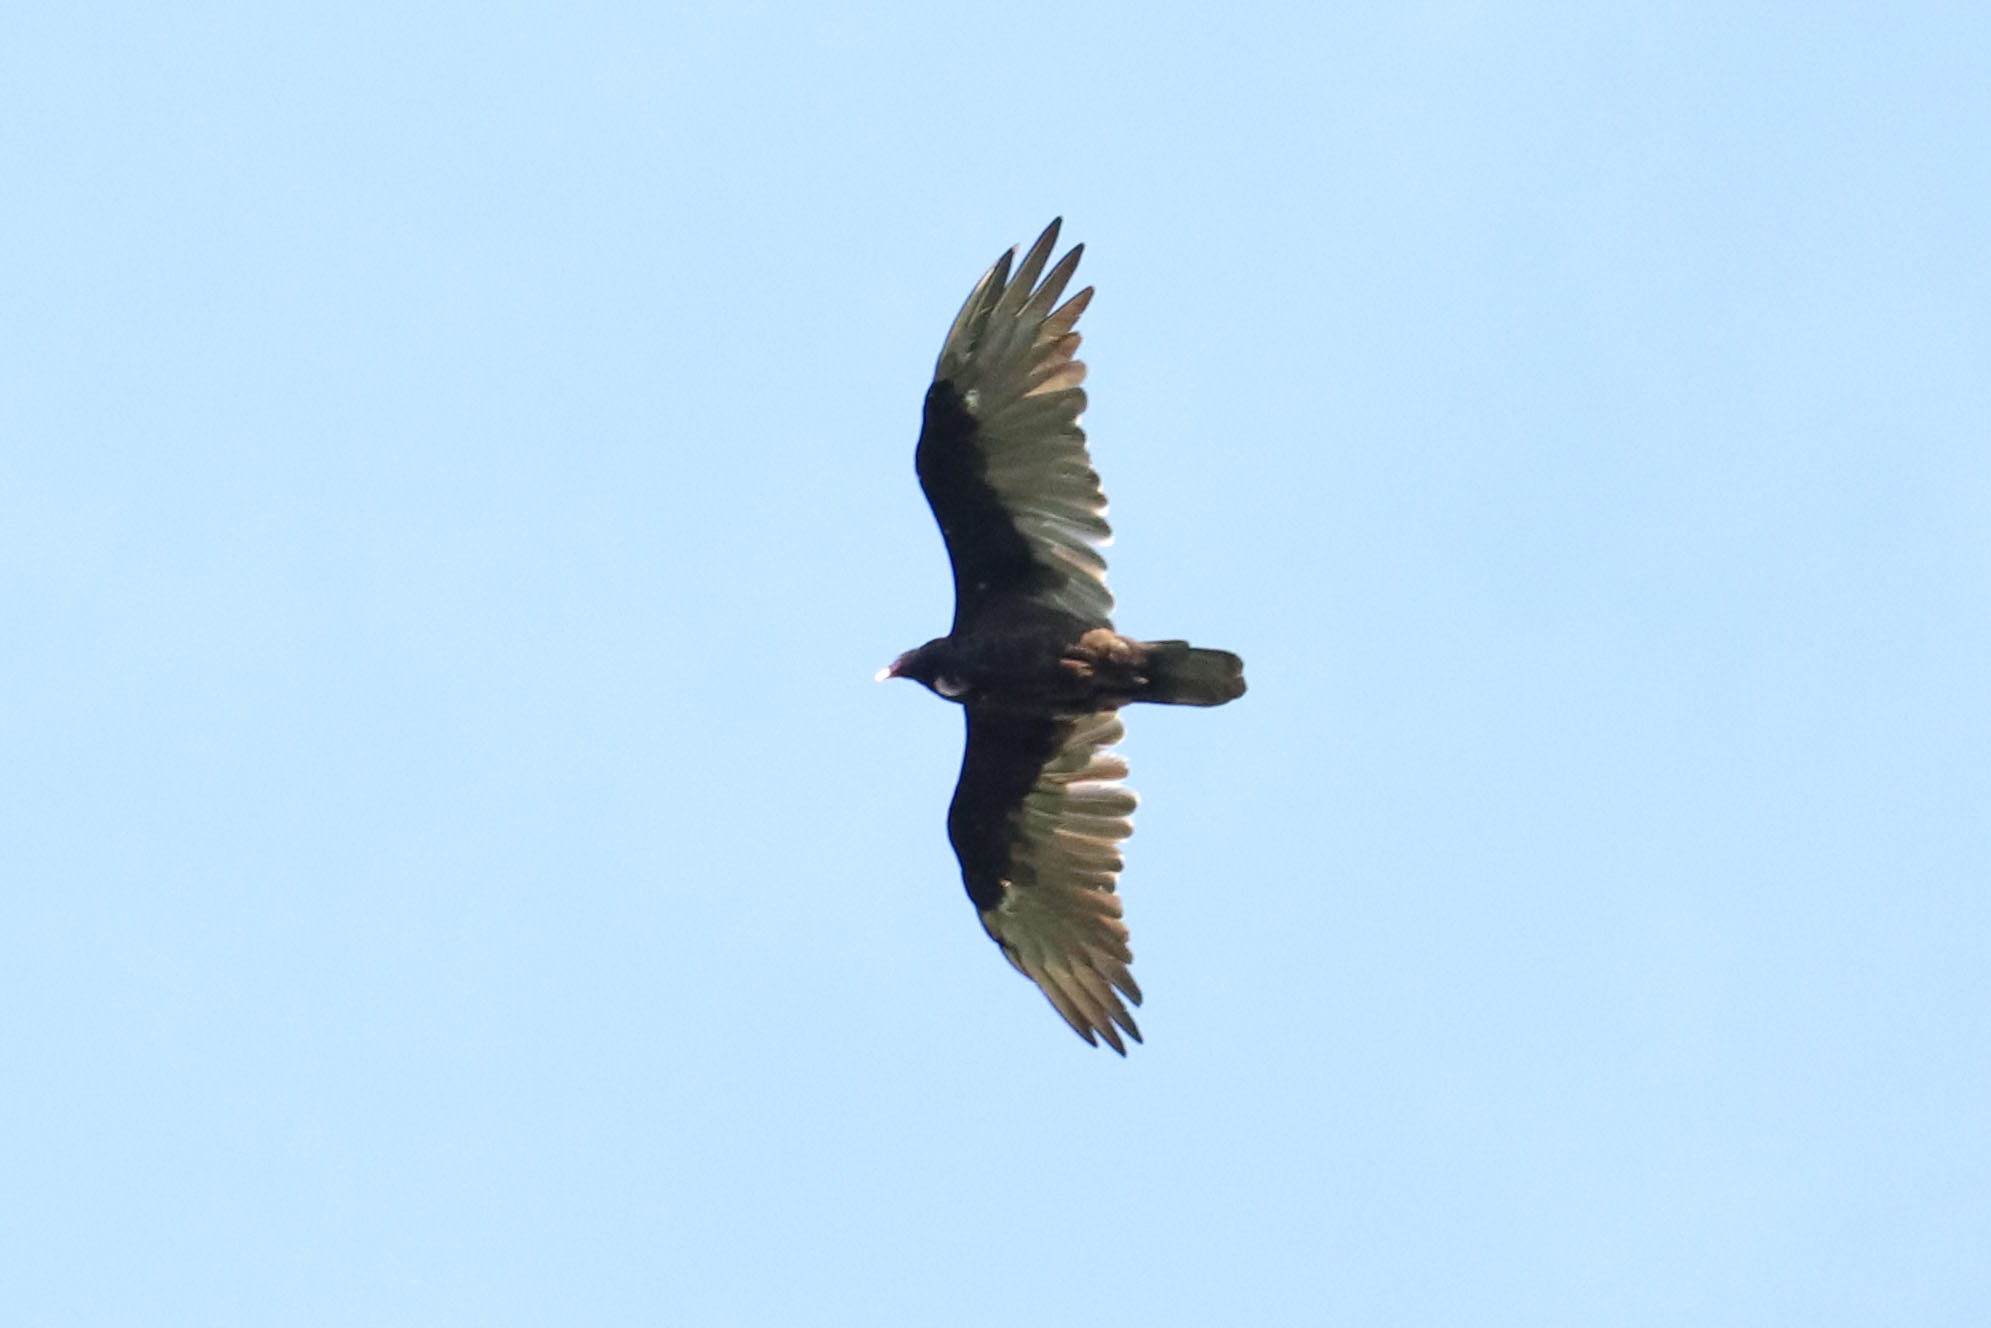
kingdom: Animalia
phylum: Chordata
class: Aves
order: Accipitriformes
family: Cathartidae
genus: Cathartes
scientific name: Cathartes aura
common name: Turkey vulture
